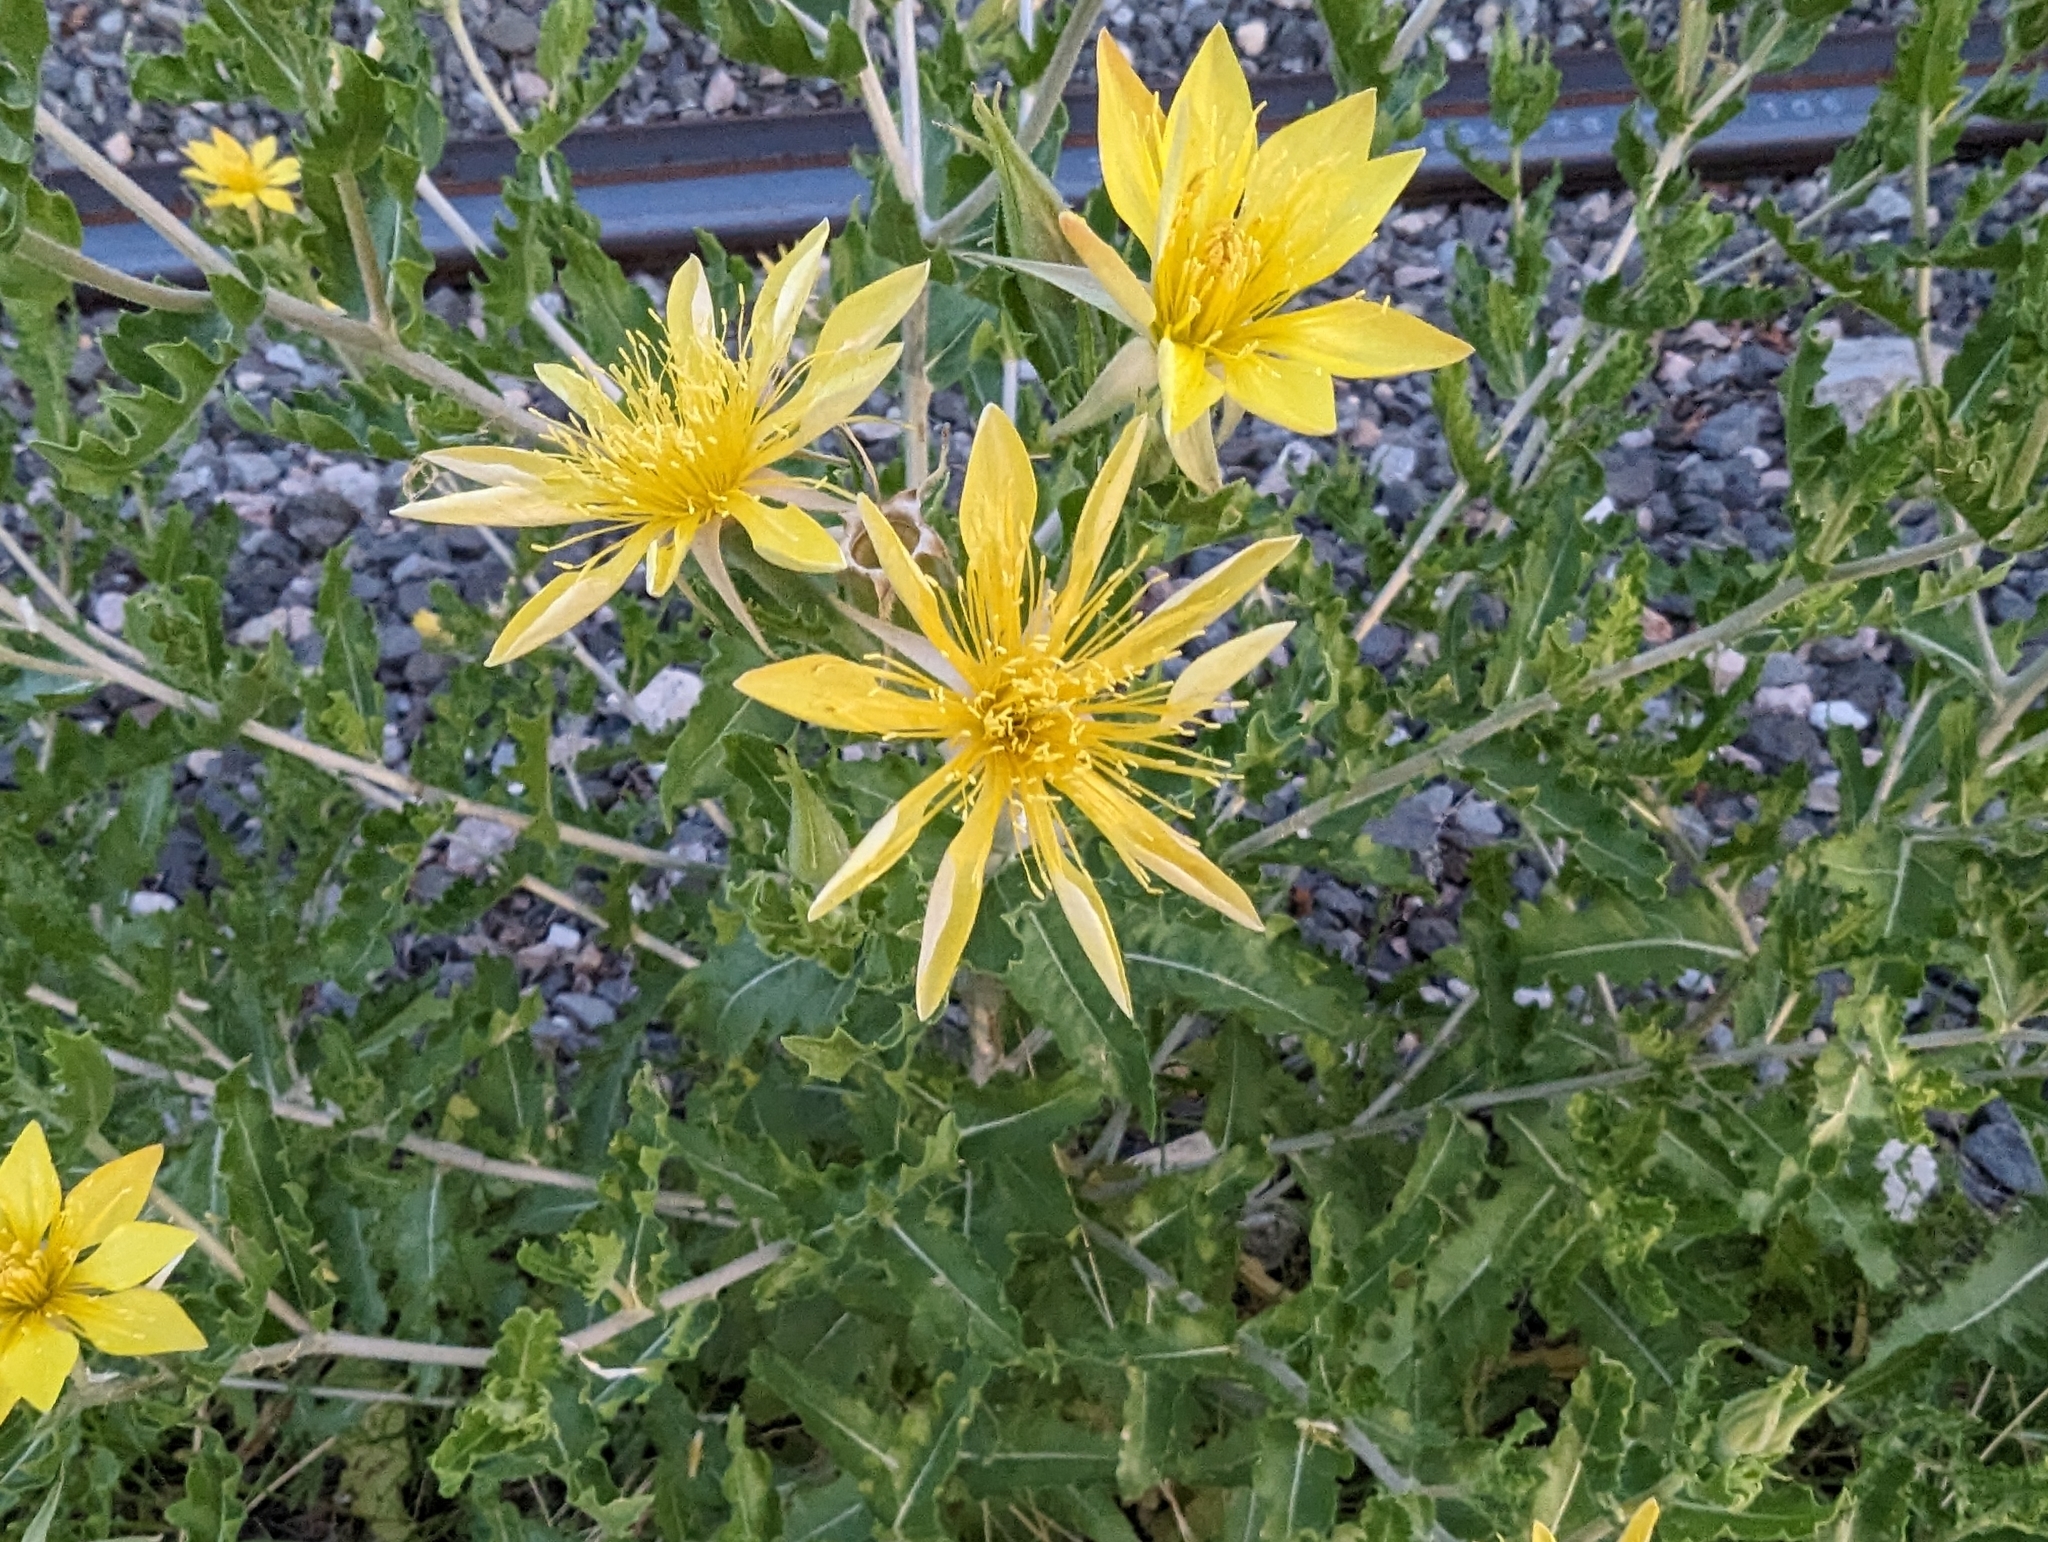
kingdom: Plantae
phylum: Tracheophyta
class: Magnoliopsida
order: Cornales
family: Loasaceae
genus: Mentzelia
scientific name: Mentzelia reverchonii
